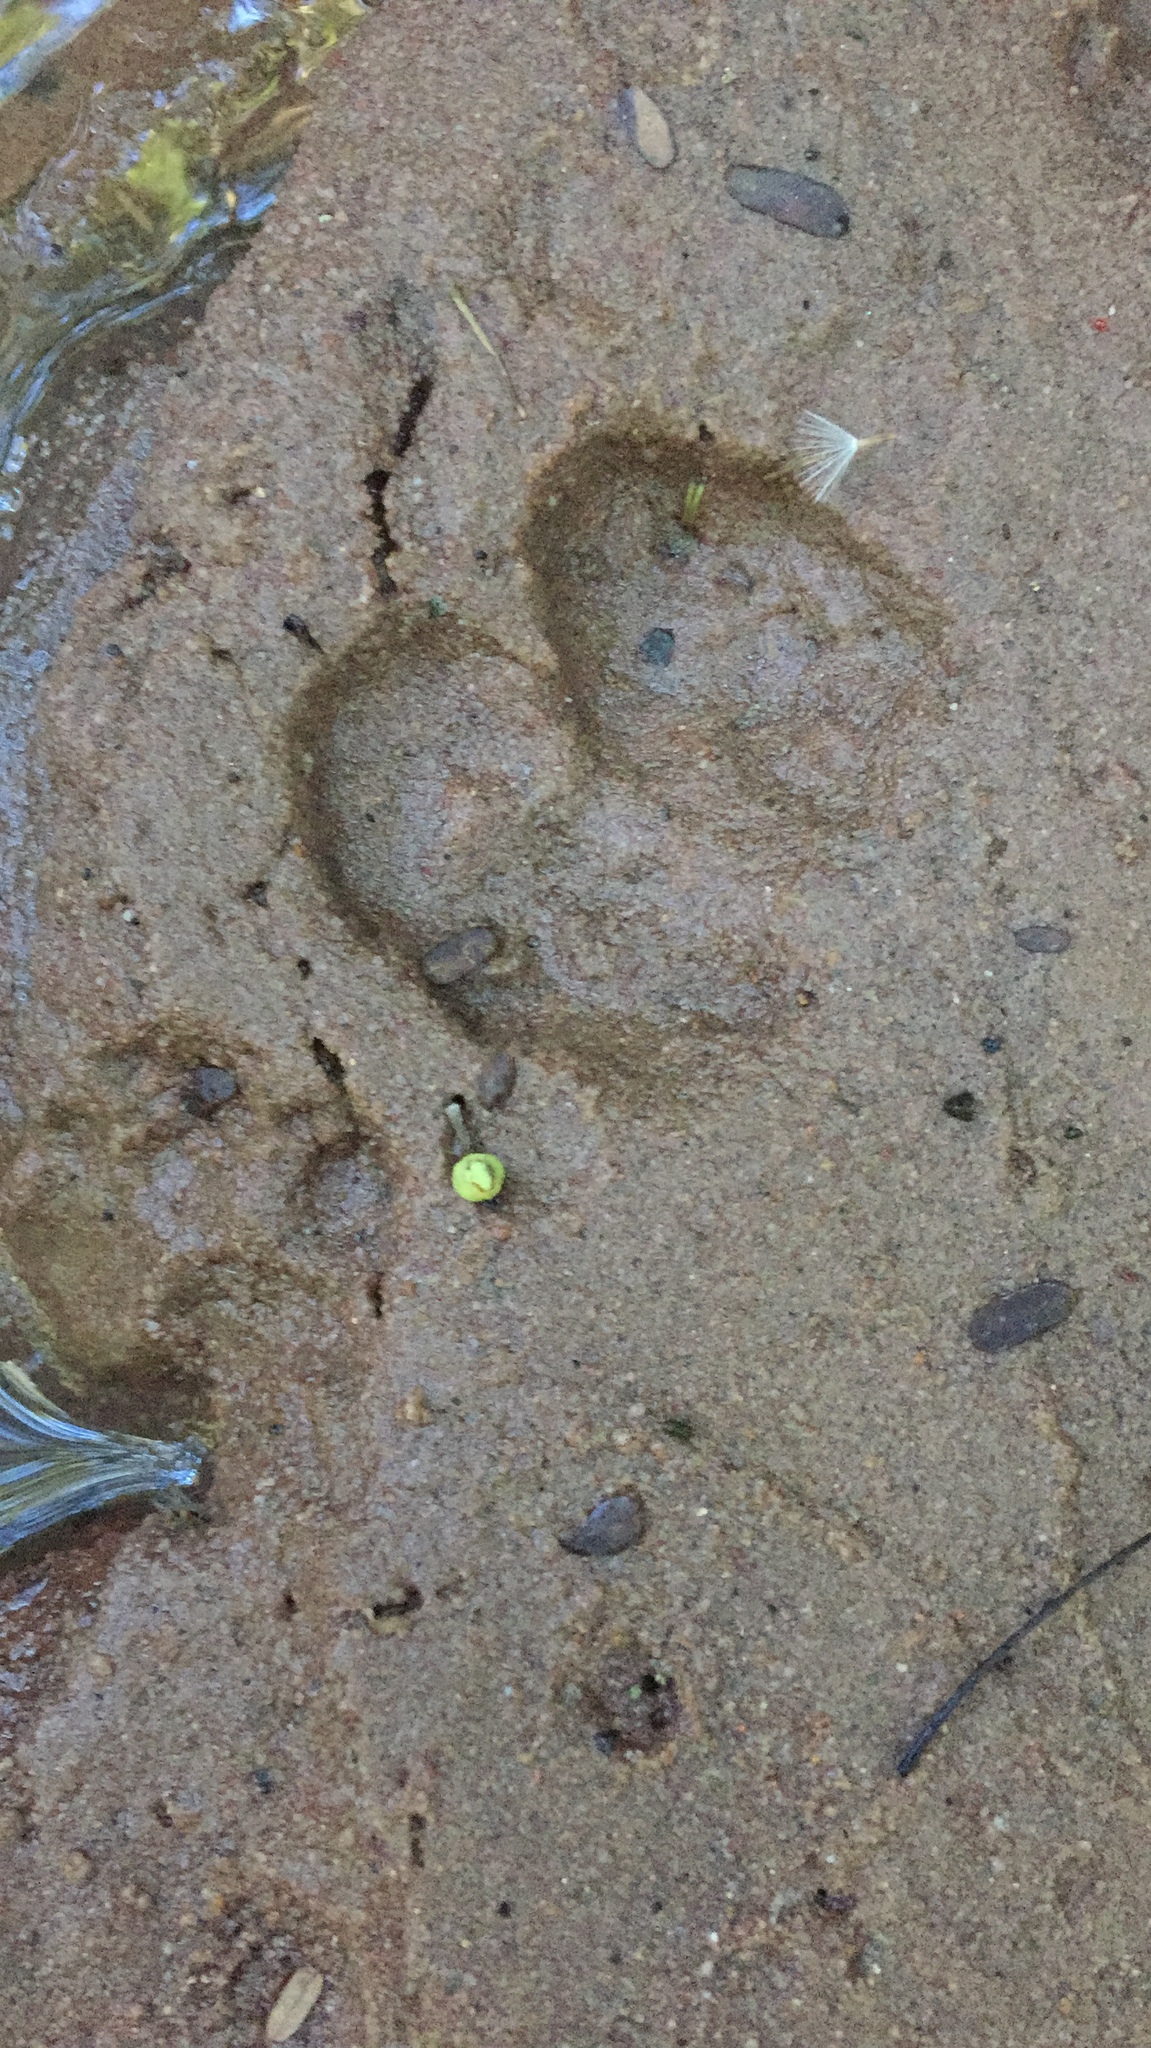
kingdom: Animalia
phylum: Chordata
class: Mammalia
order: Artiodactyla
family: Suidae
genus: Potamochoerus
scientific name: Potamochoerus larvatus
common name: Bushpig
